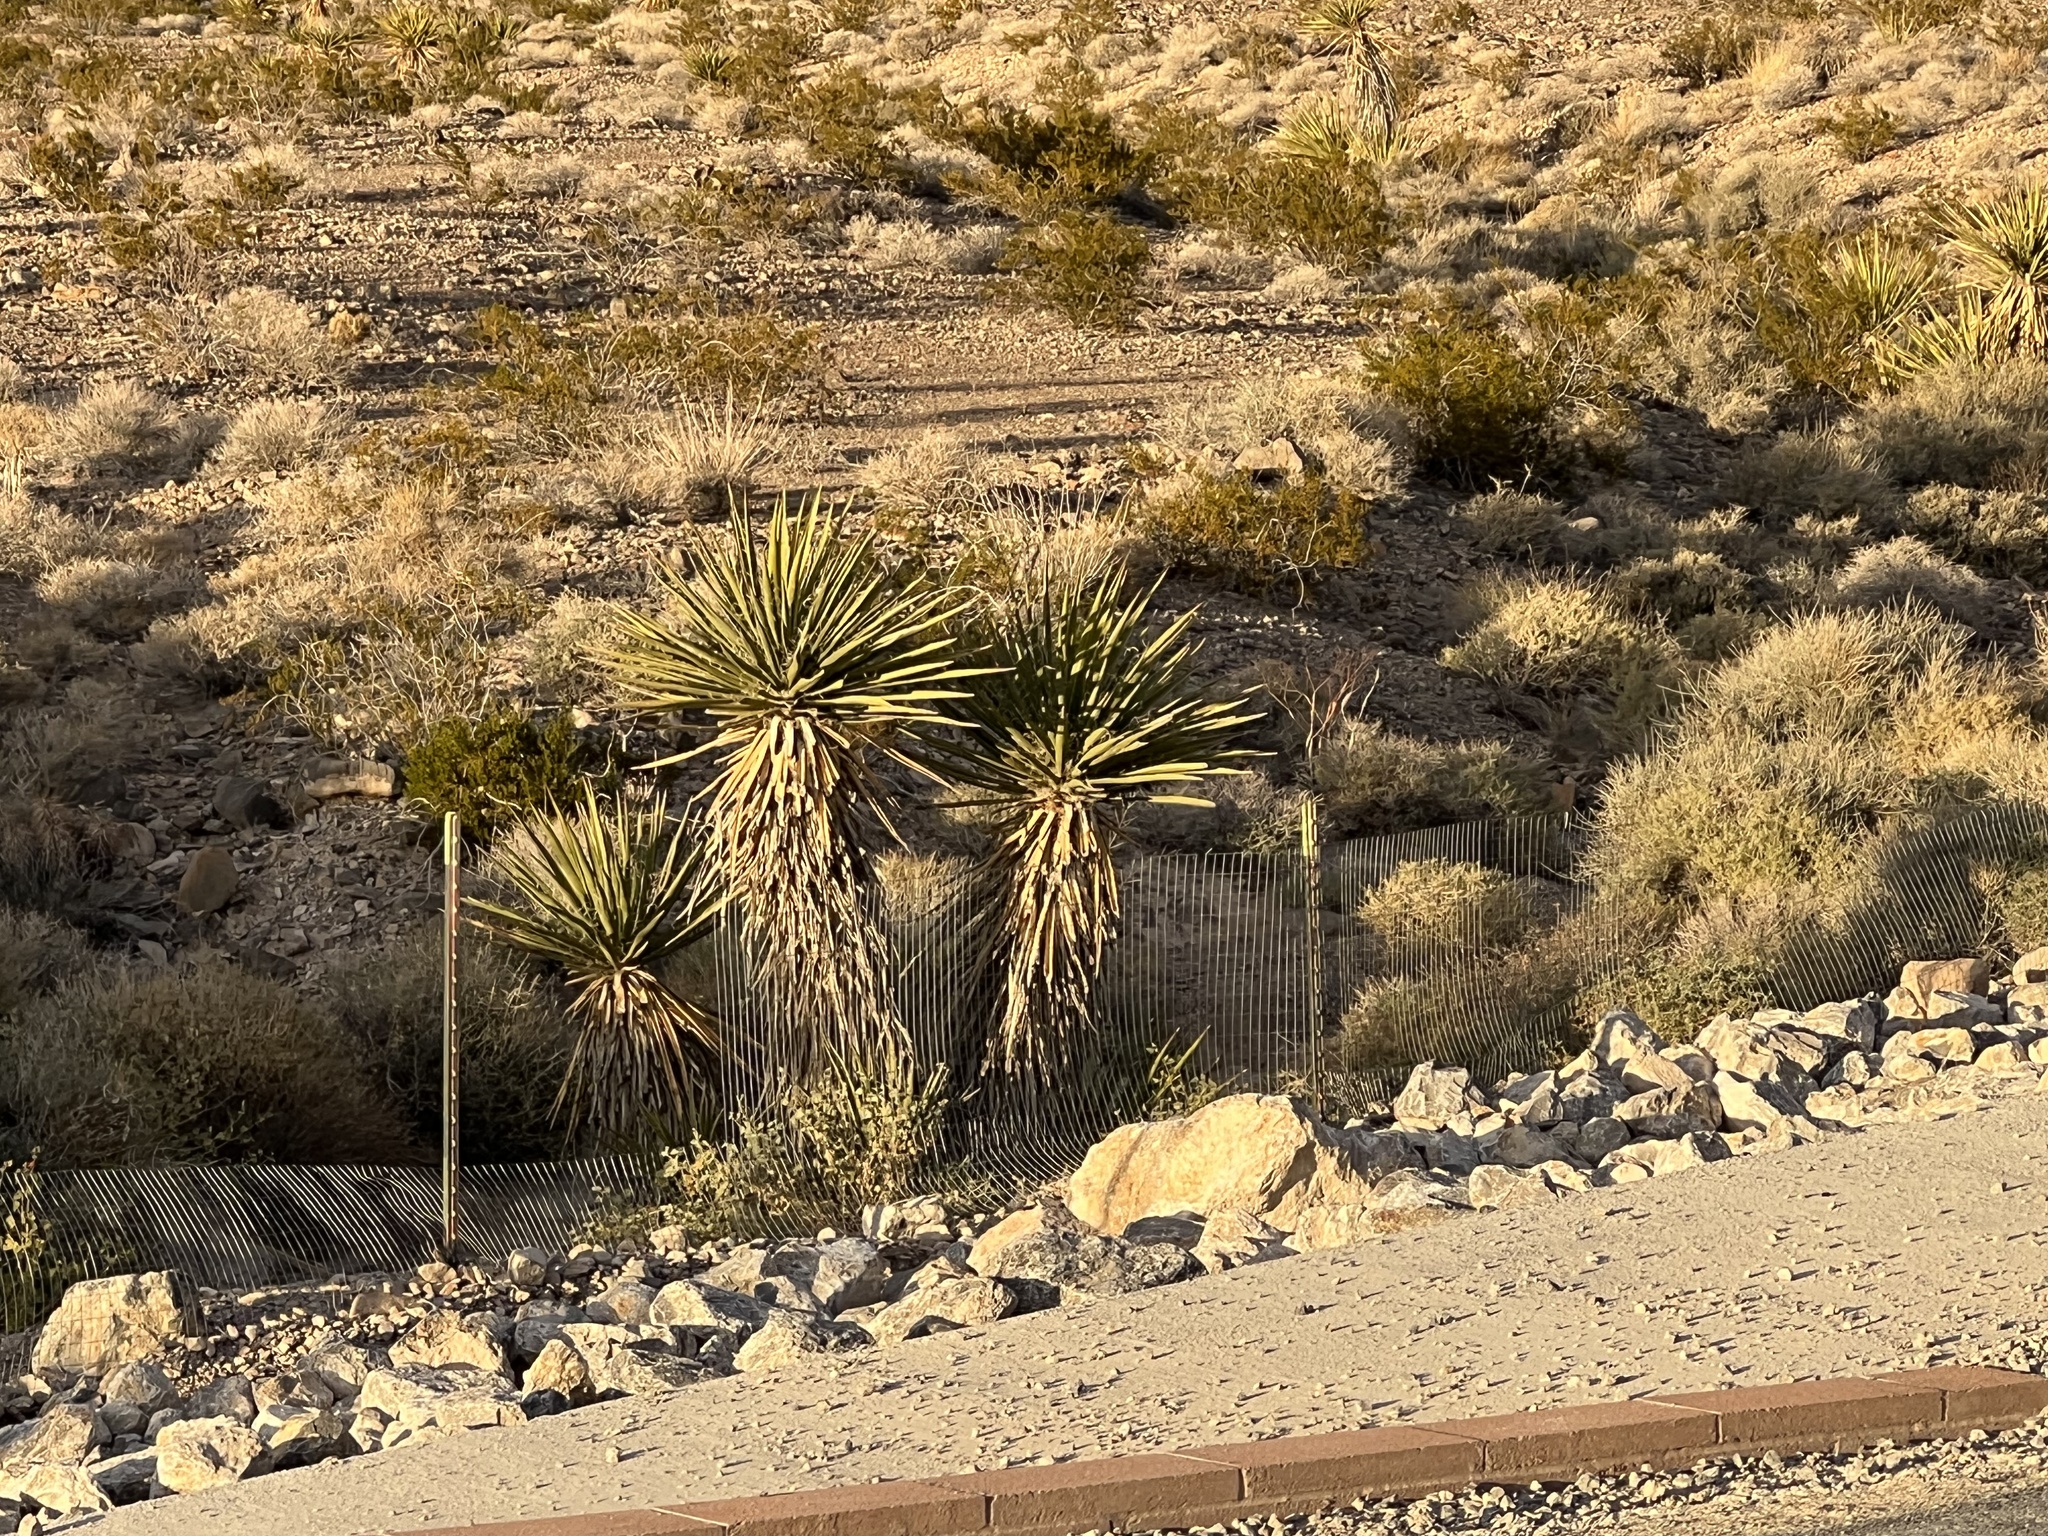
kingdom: Plantae
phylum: Tracheophyta
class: Liliopsida
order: Asparagales
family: Asparagaceae
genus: Yucca
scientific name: Yucca schidigera
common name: Mojave yucca
